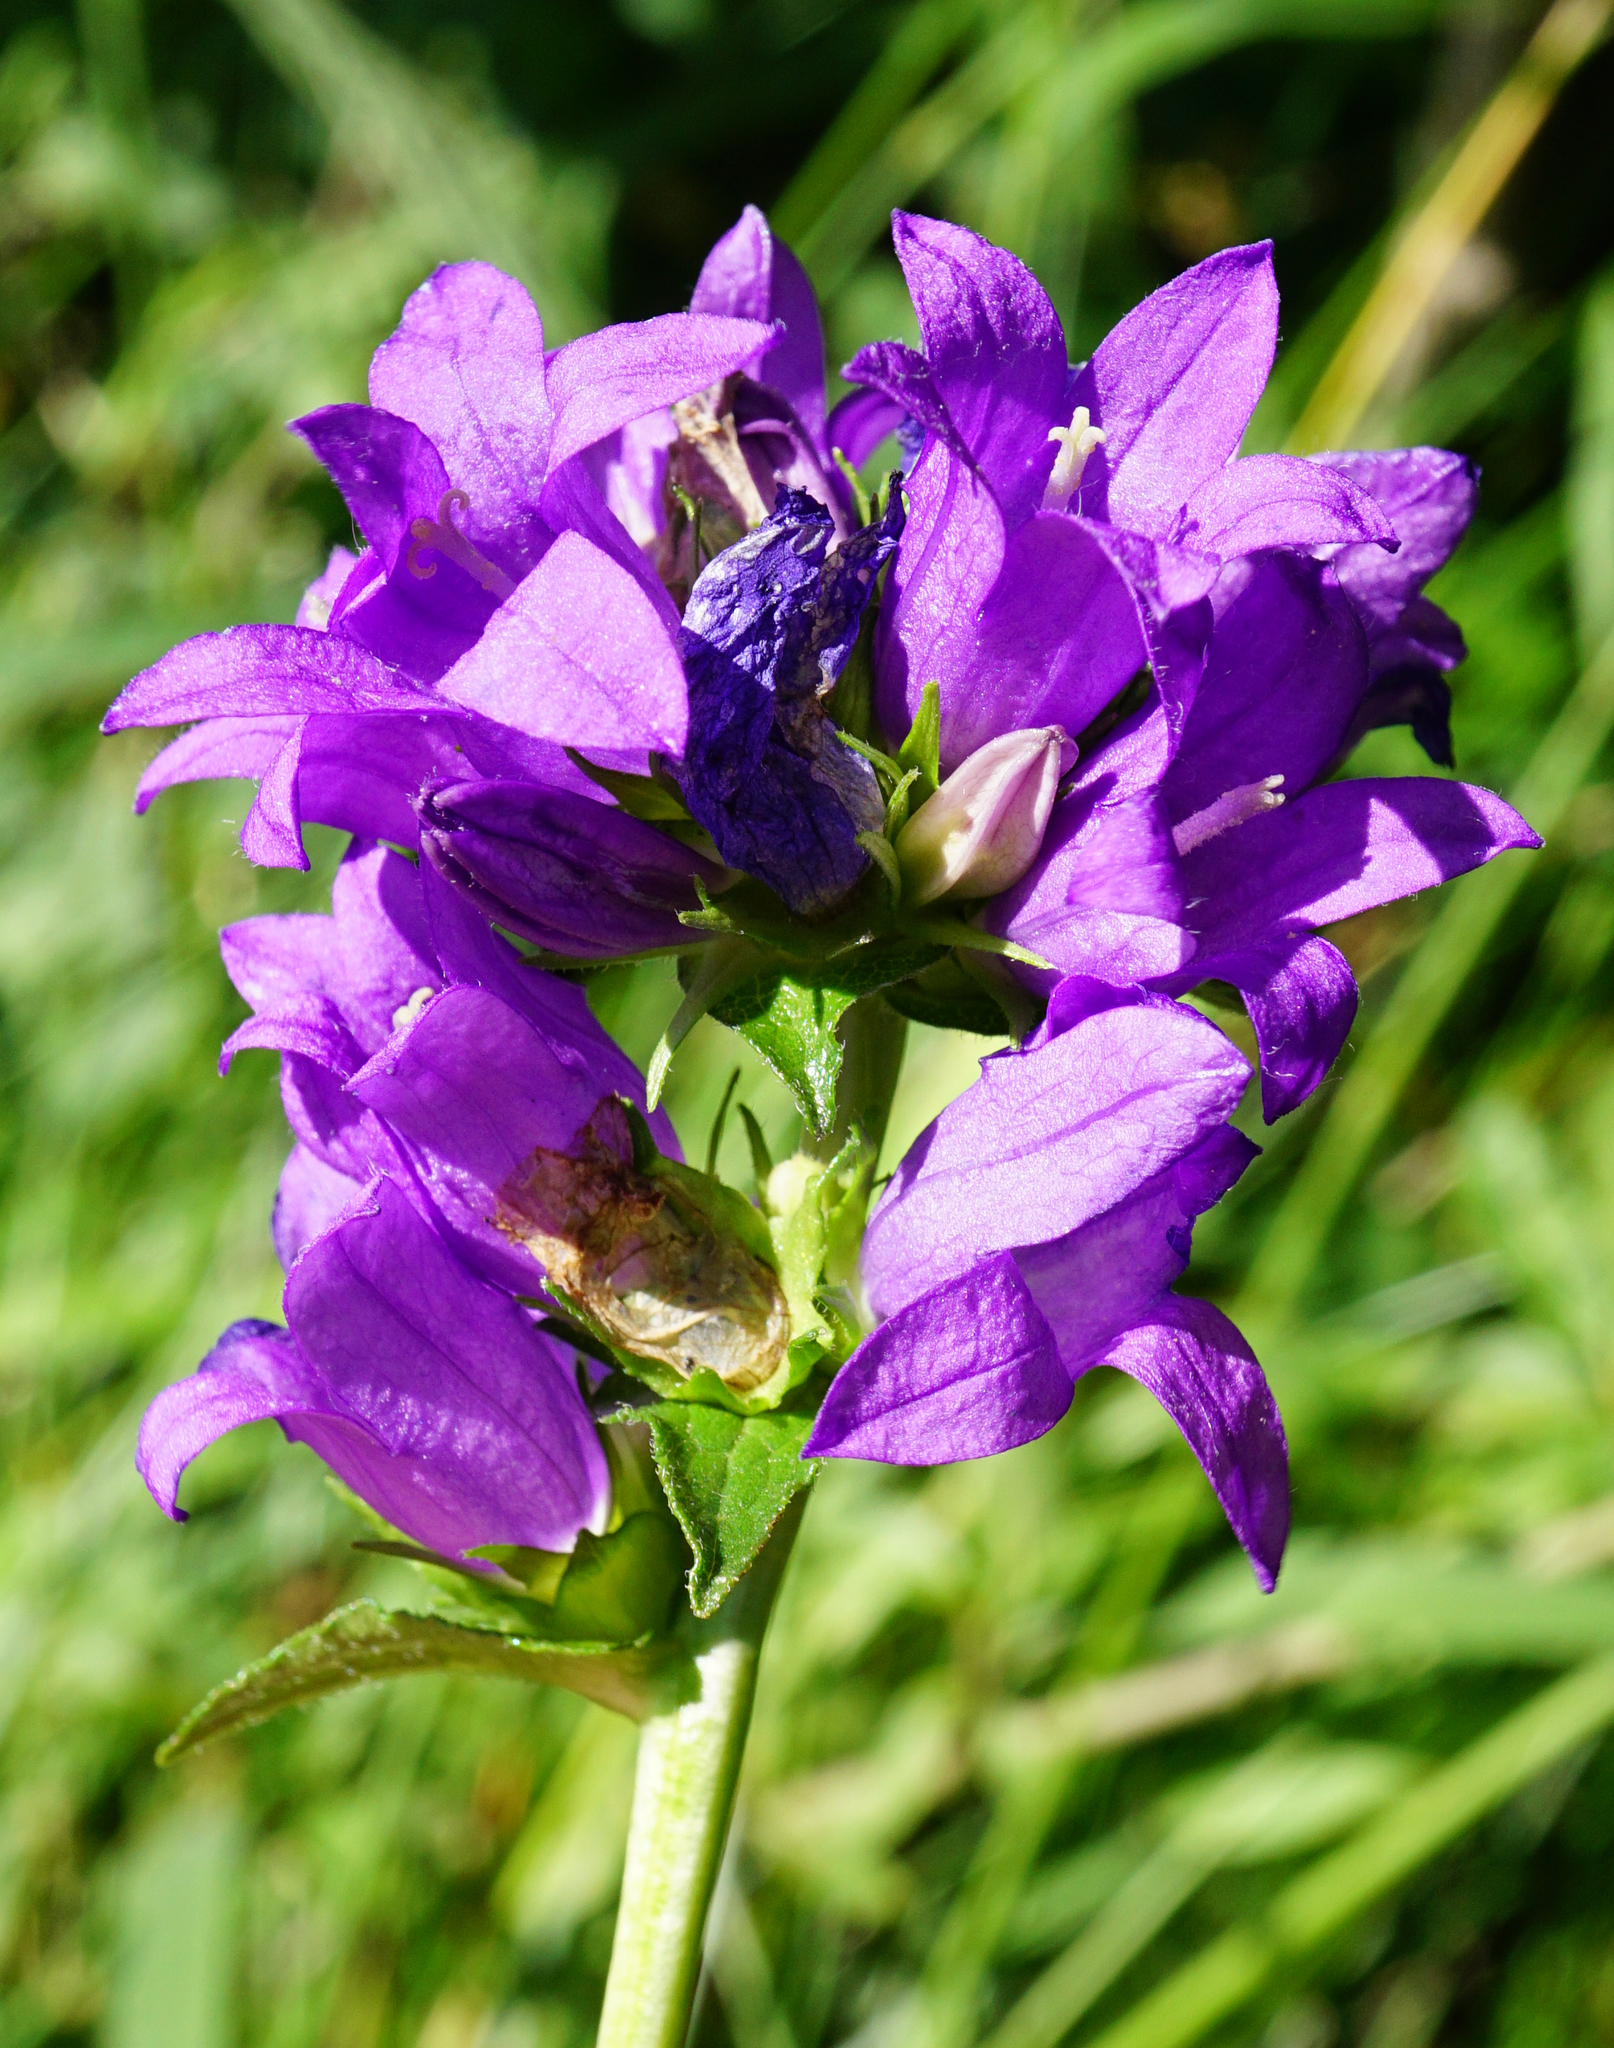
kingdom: Plantae
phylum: Tracheophyta
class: Magnoliopsida
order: Asterales
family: Campanulaceae
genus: Campanula
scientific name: Campanula glomerata
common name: Clustered bellflower
